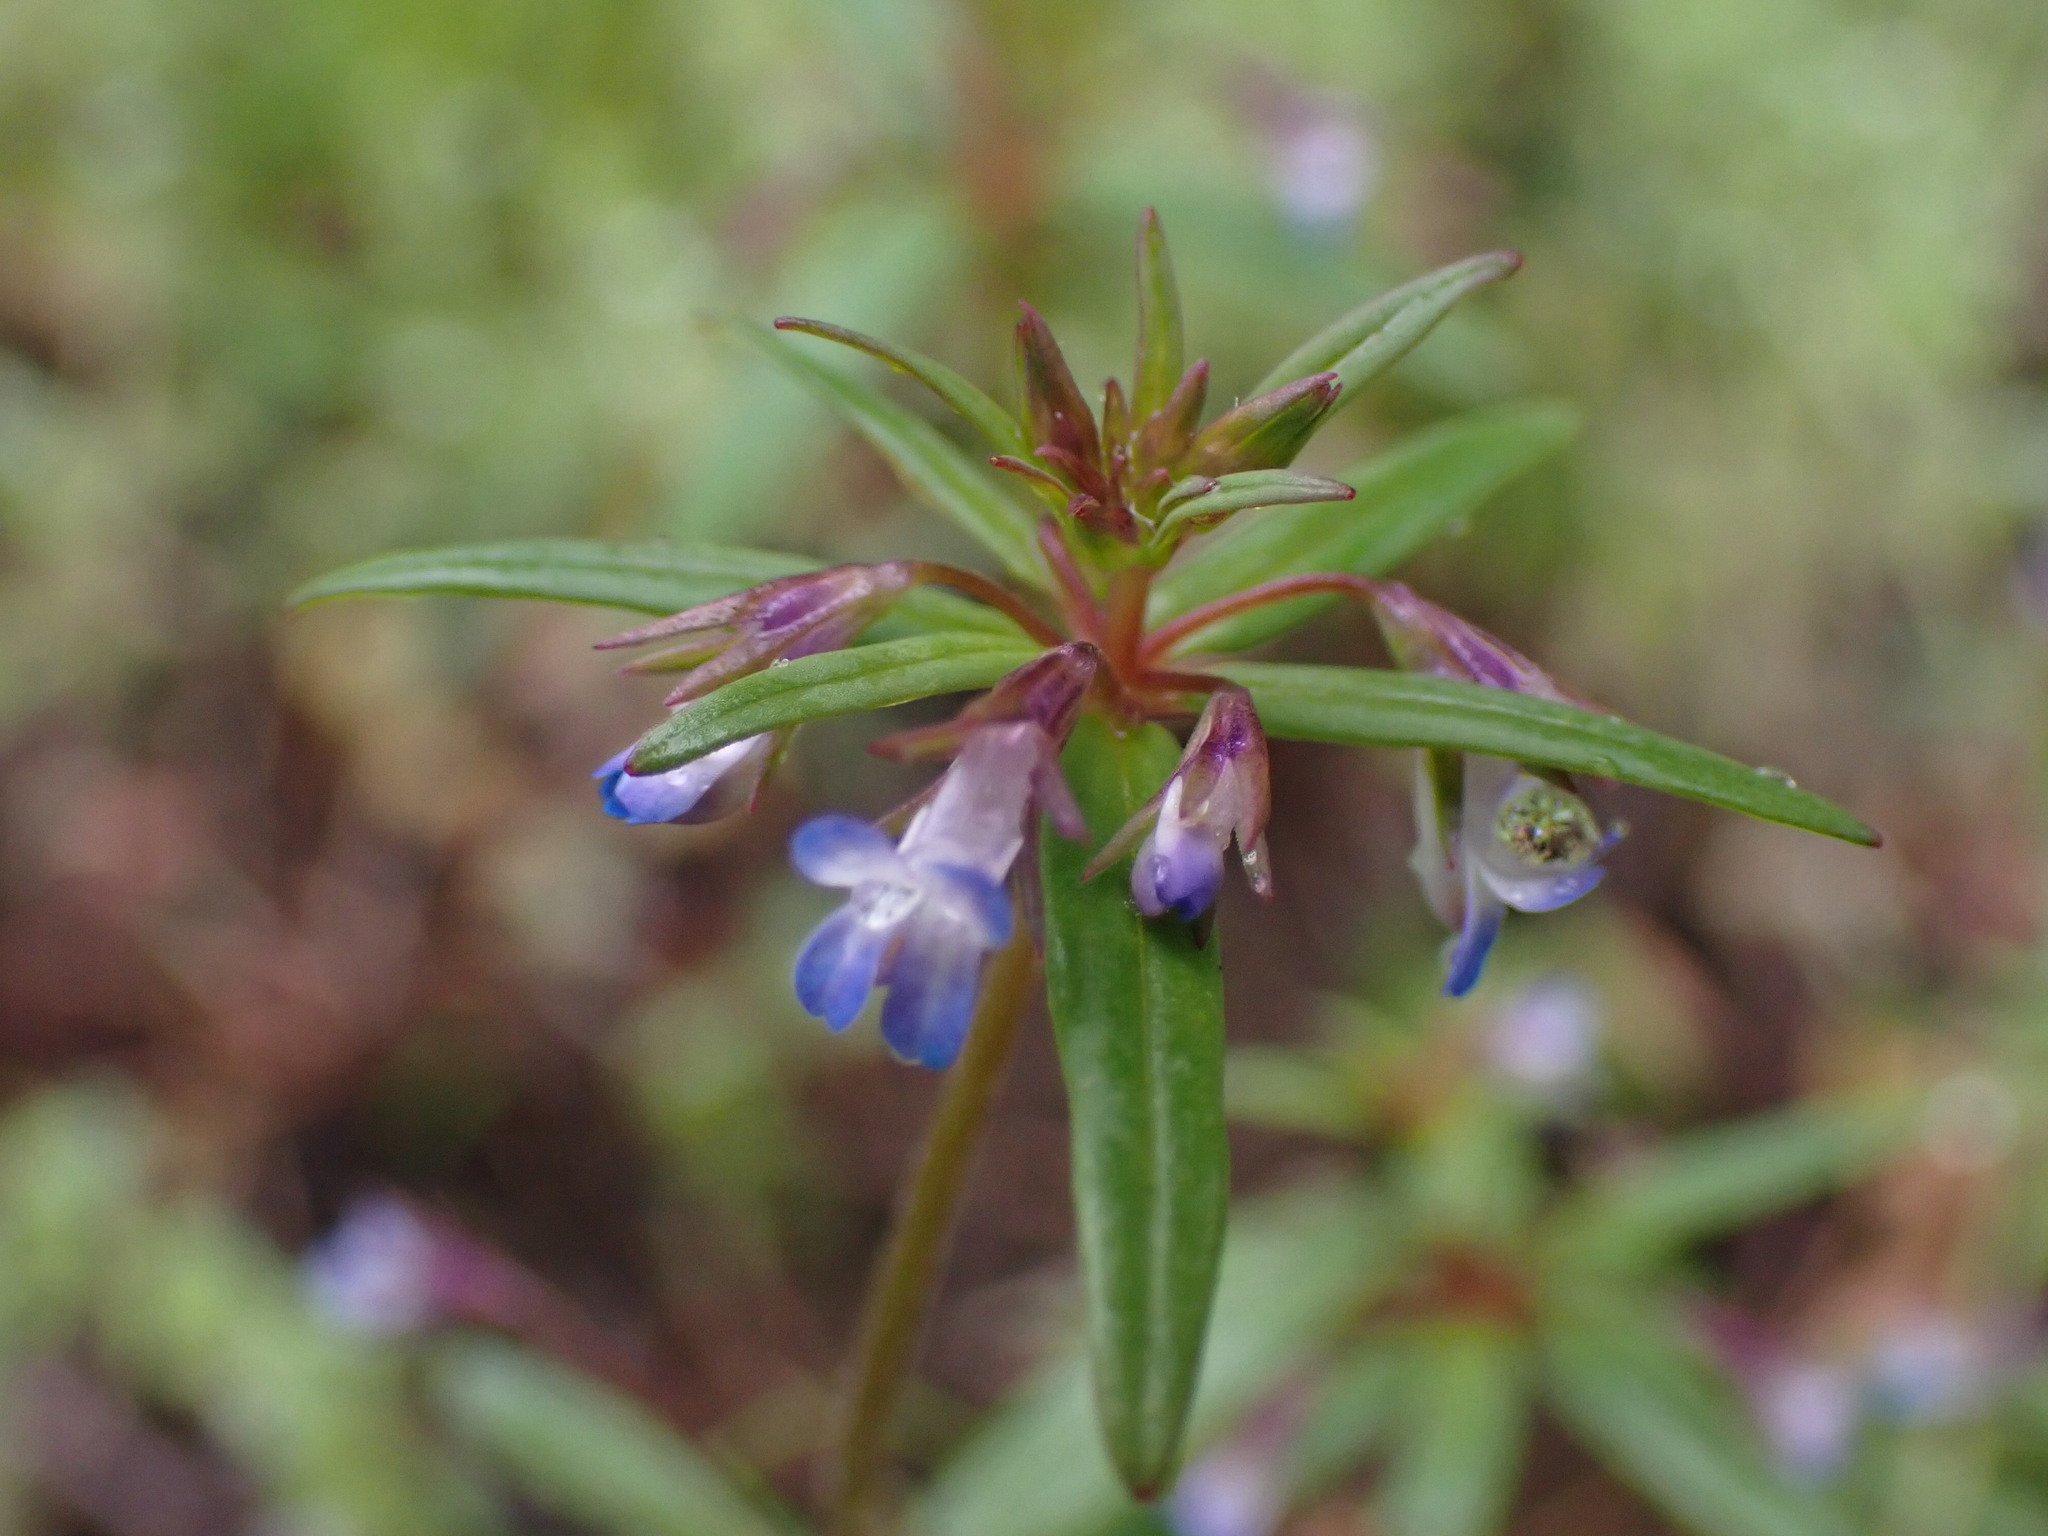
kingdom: Plantae
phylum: Tracheophyta
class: Magnoliopsida
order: Lamiales
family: Plantaginaceae
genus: Collinsia
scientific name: Collinsia parviflora
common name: Blue-lips
